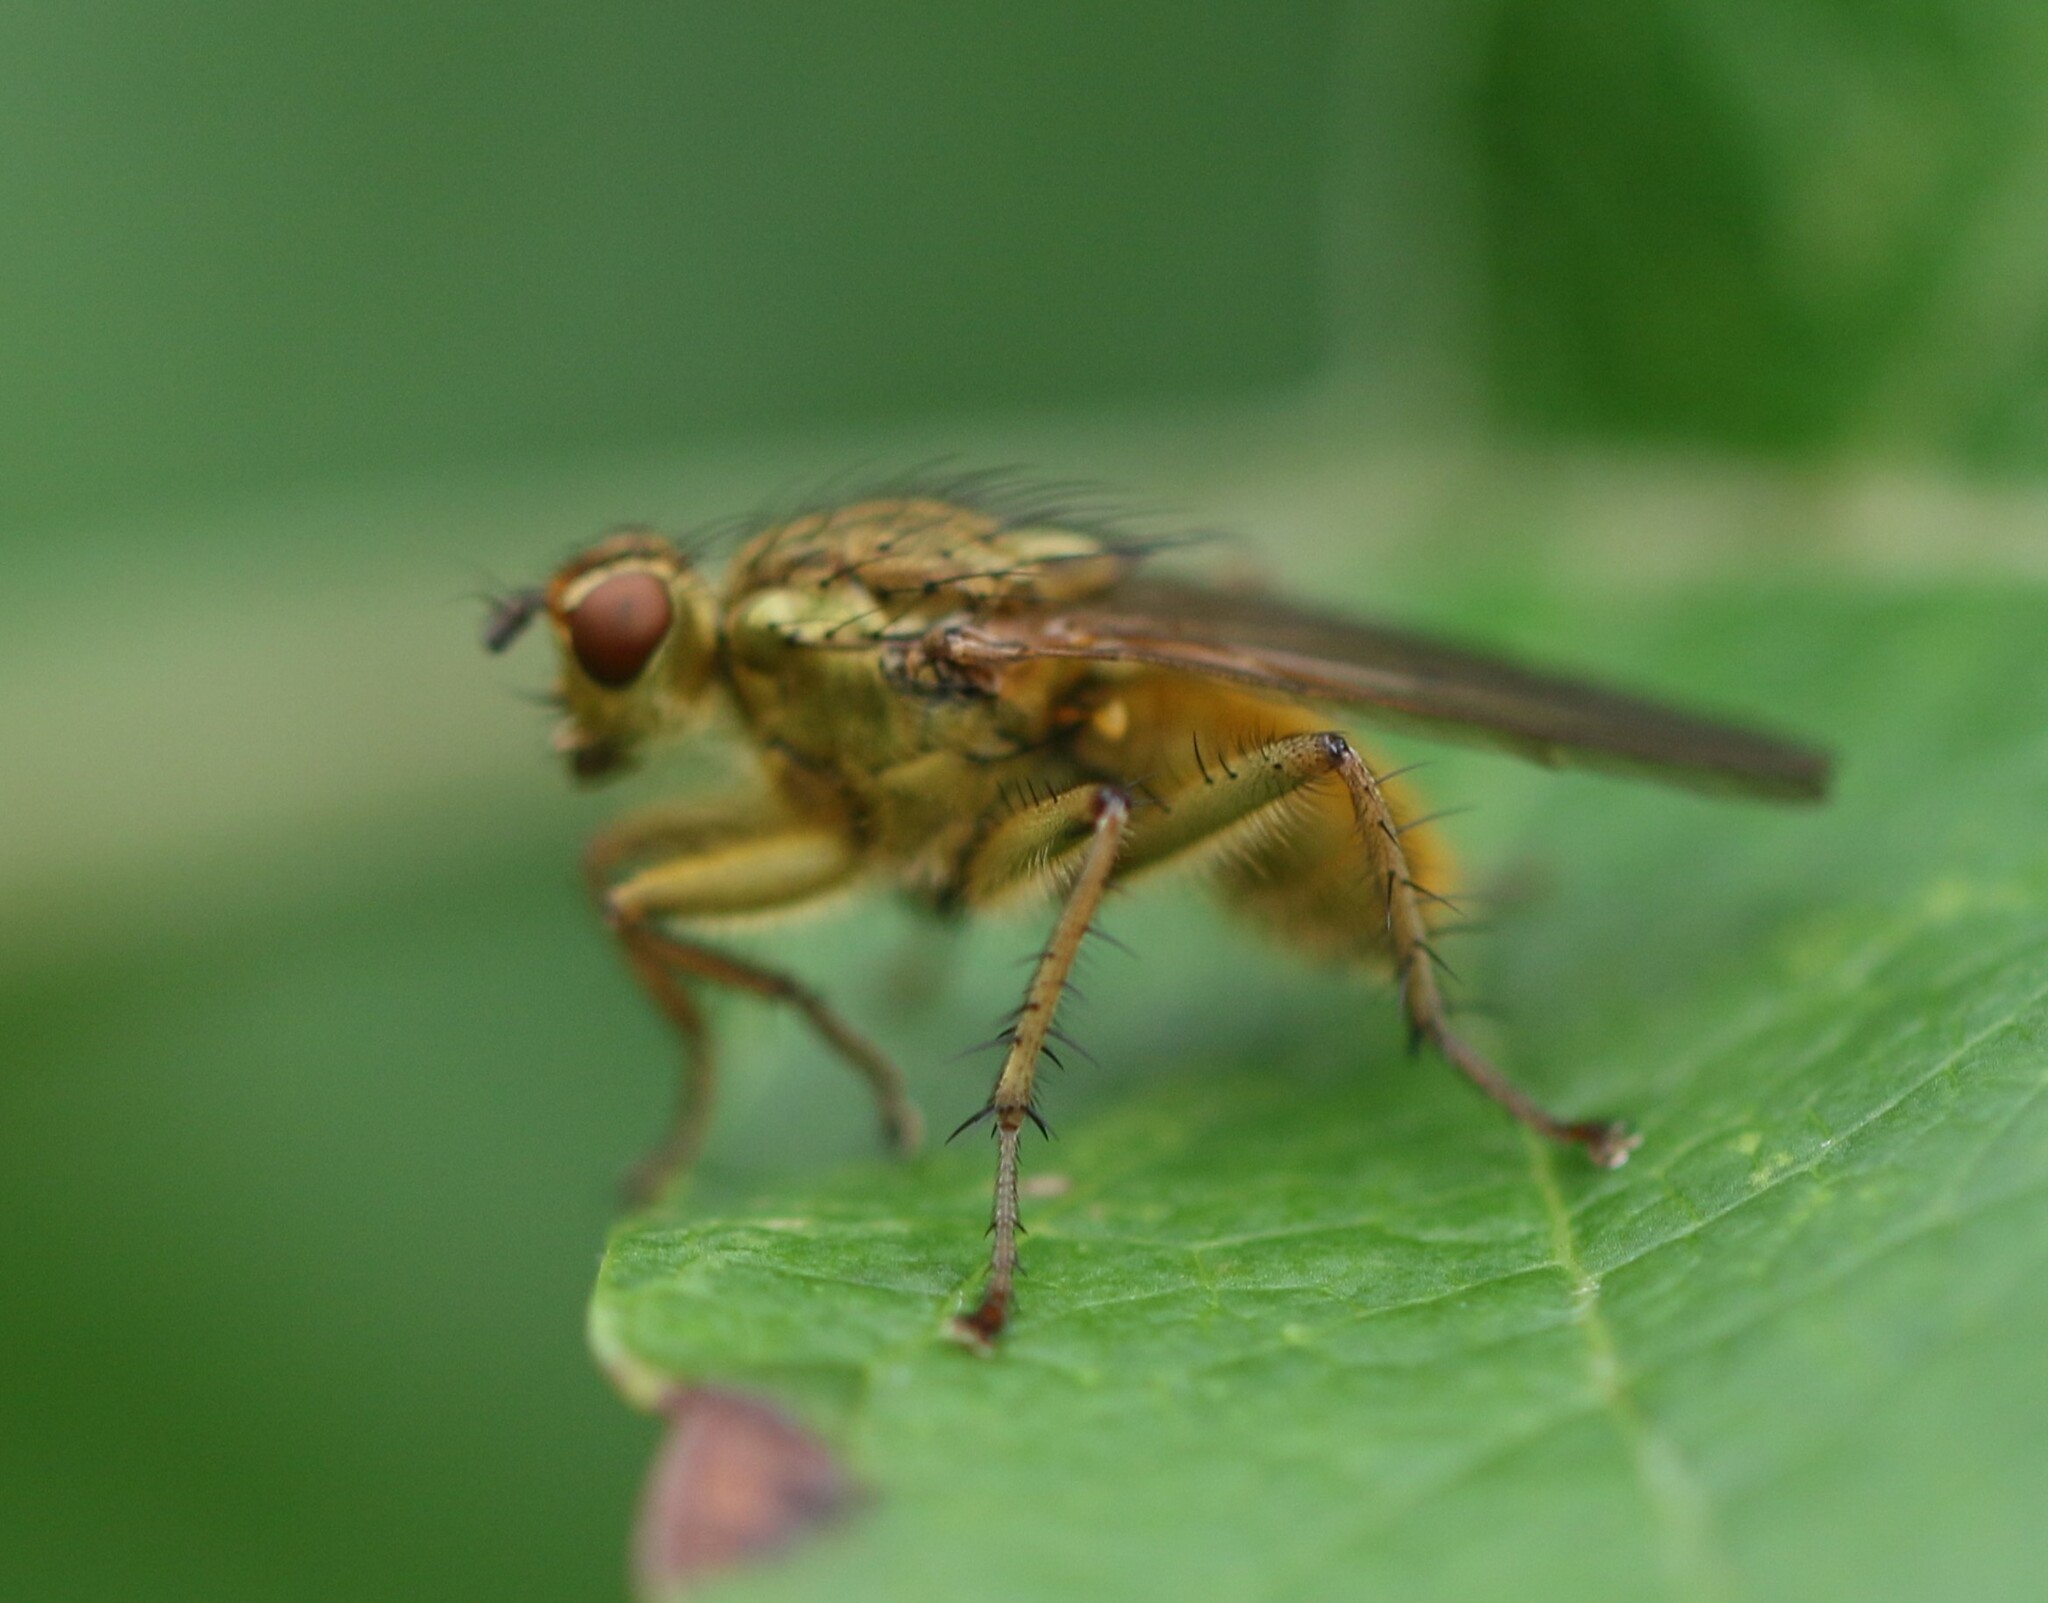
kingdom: Animalia
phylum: Arthropoda
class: Insecta
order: Diptera
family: Scathophagidae
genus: Scathophaga
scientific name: Scathophaga stercoraria
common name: Yellow dung fly
